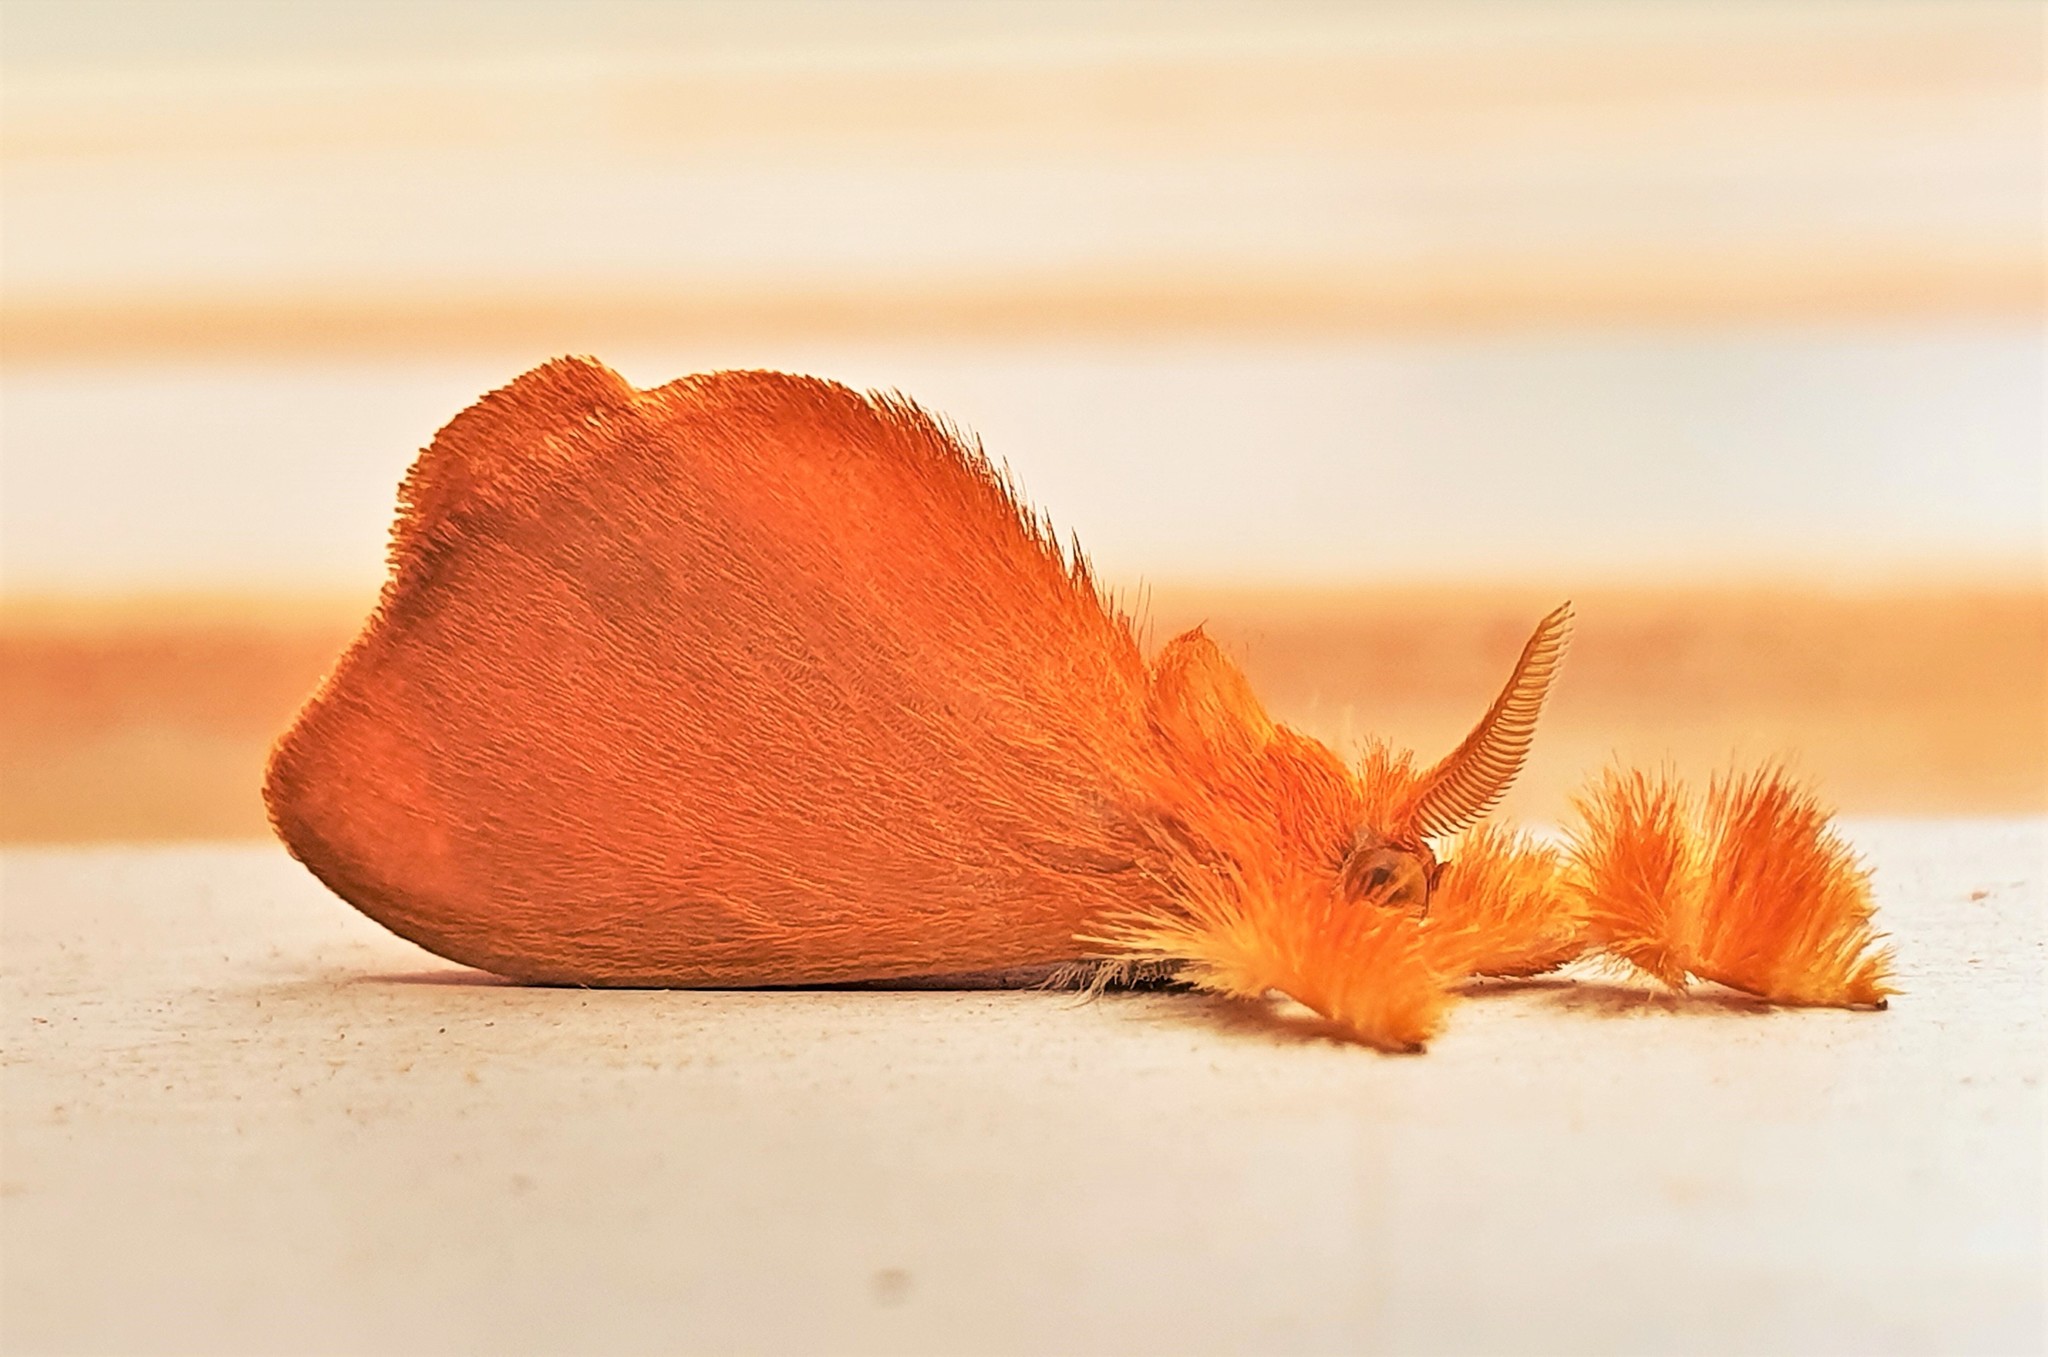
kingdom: Animalia
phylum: Arthropoda
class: Insecta
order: Lepidoptera
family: Dalceridae
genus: Acraga
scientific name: Acraga coa
